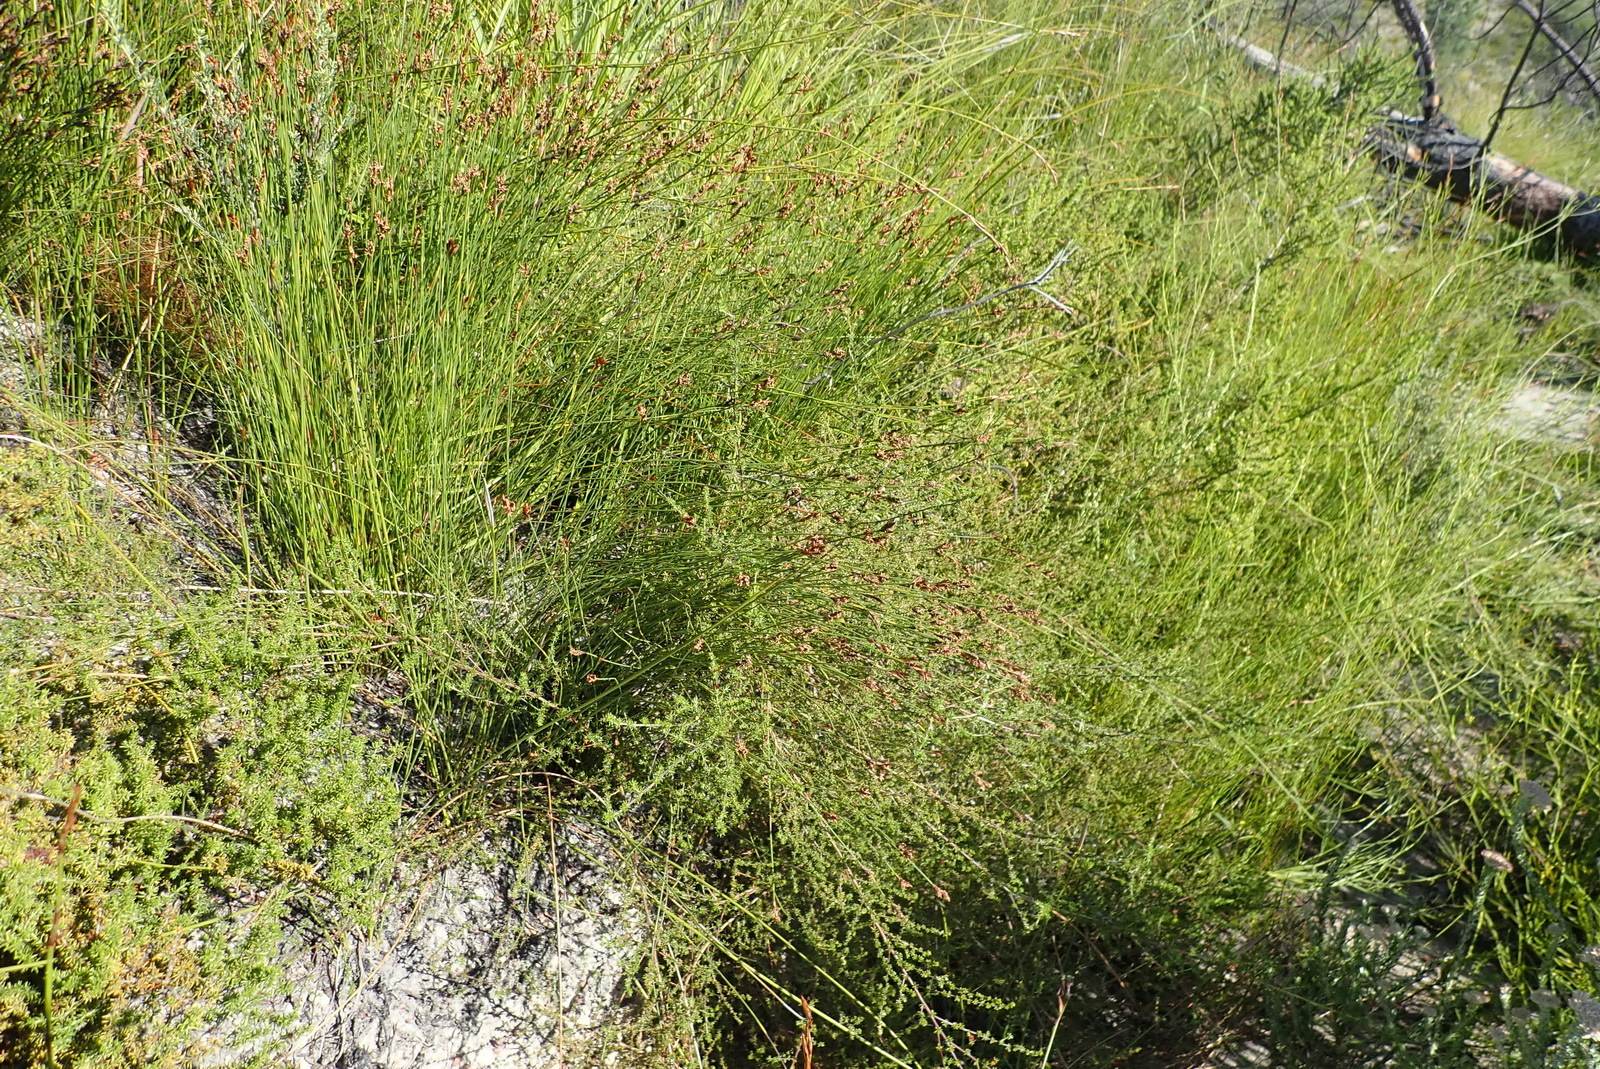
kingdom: Plantae
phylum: Tracheophyta
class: Liliopsida
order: Poales
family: Restionaceae
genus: Hypodiscus
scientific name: Hypodiscus striatus
